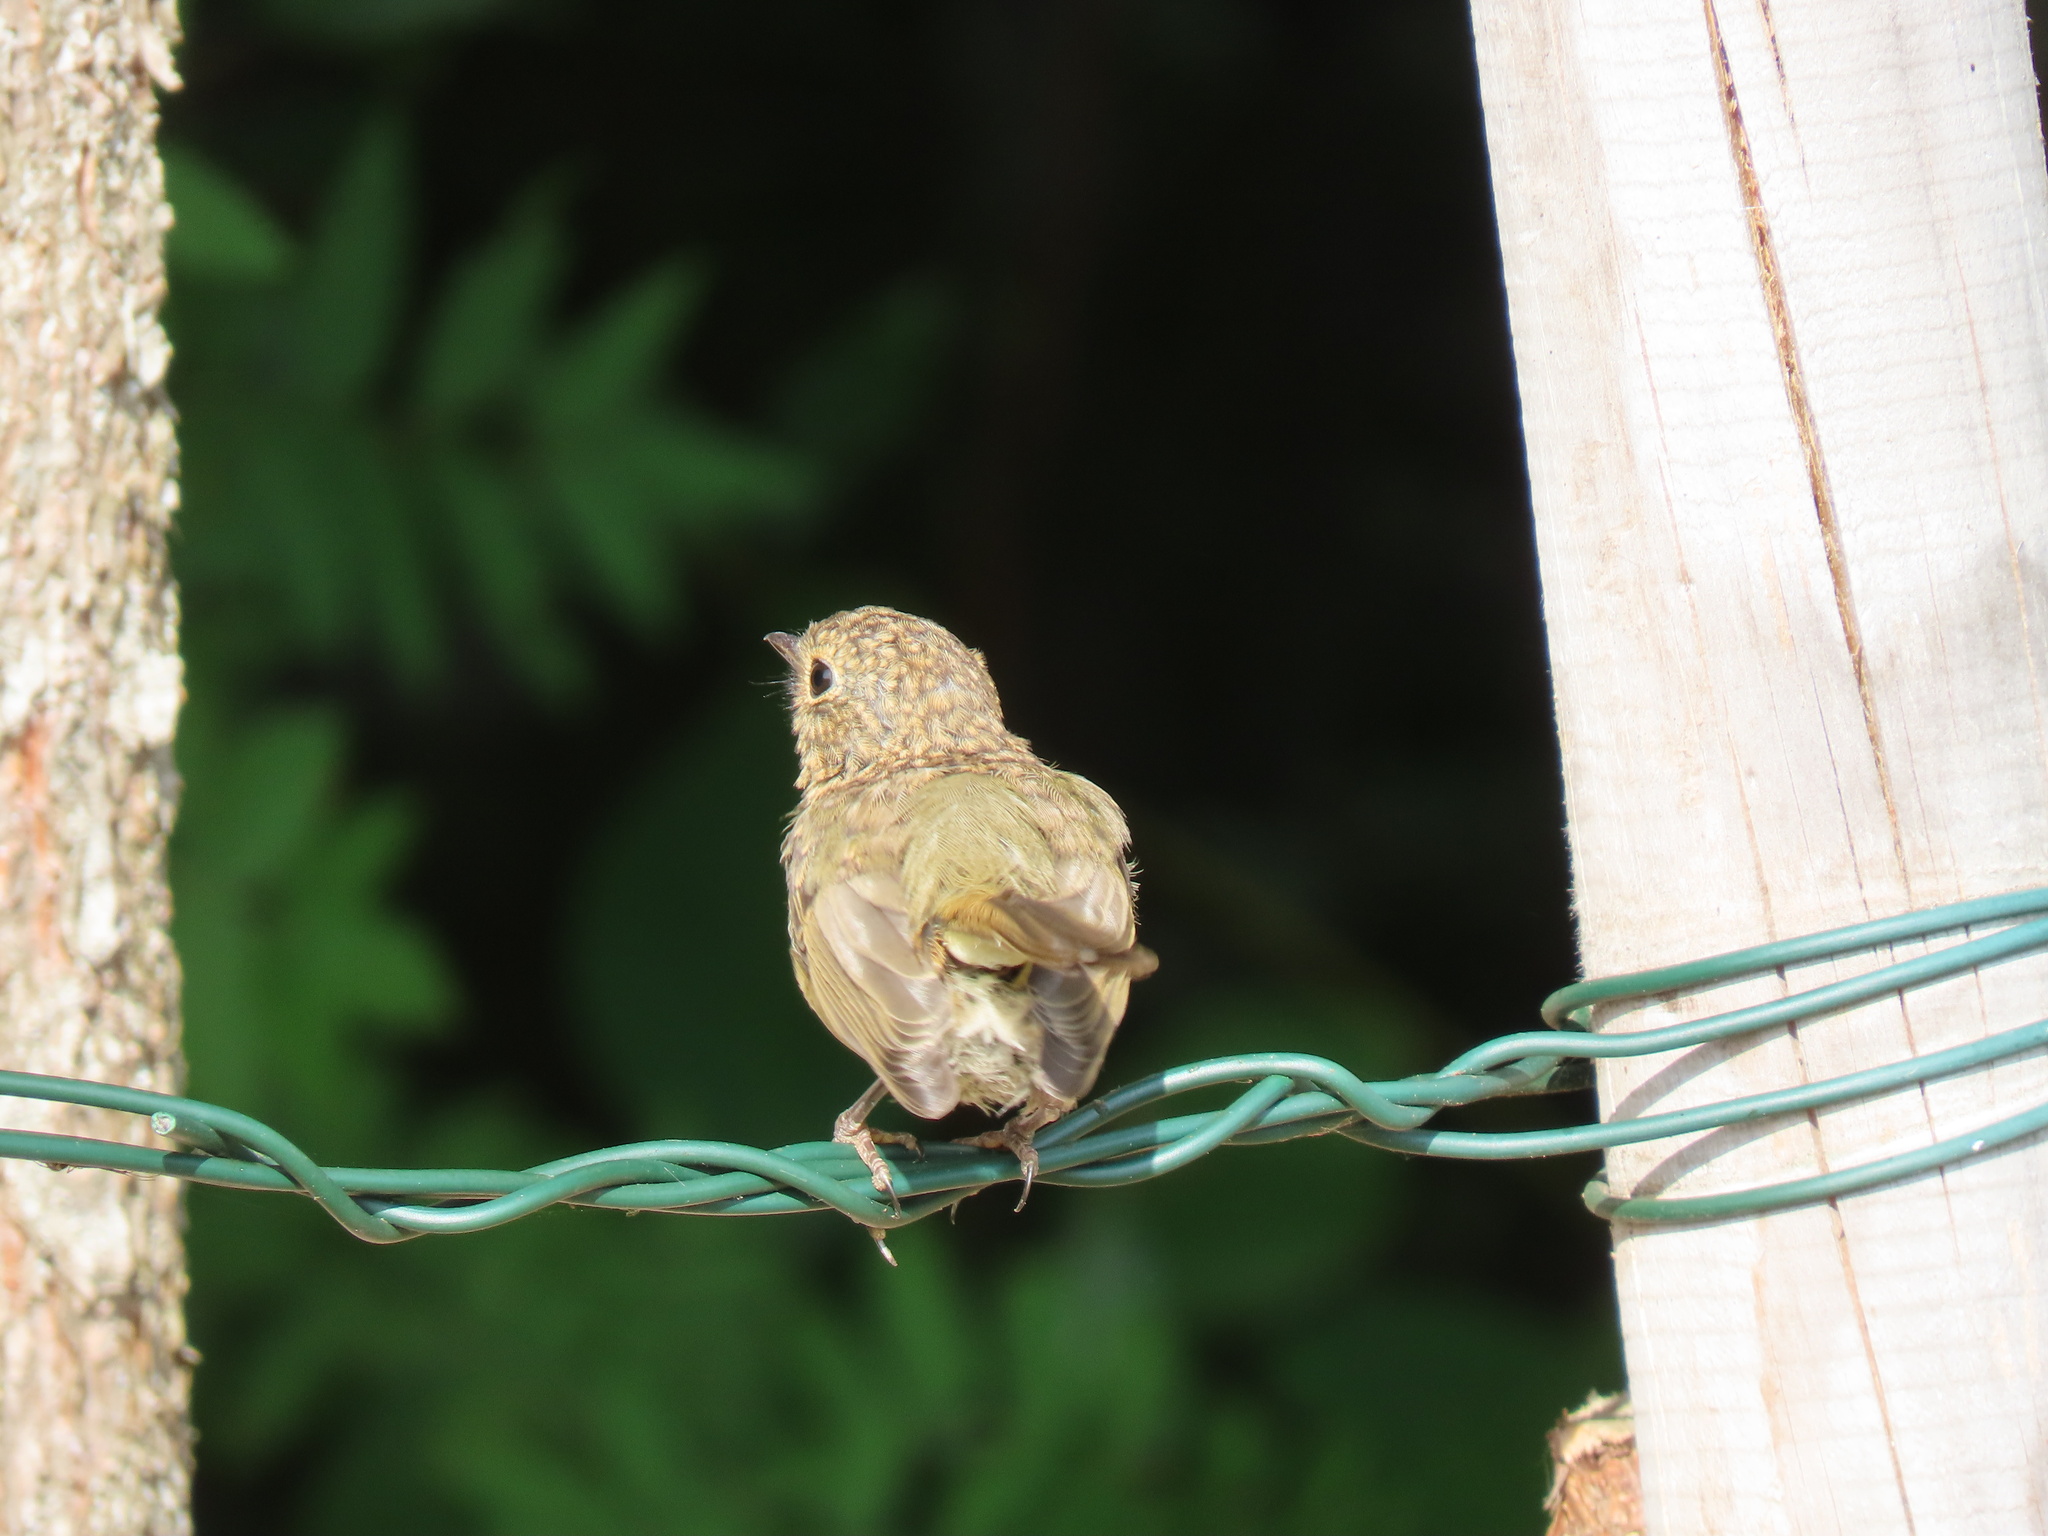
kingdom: Animalia
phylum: Chordata
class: Aves
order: Passeriformes
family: Muscicapidae
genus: Erithacus
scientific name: Erithacus rubecula
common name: European robin
